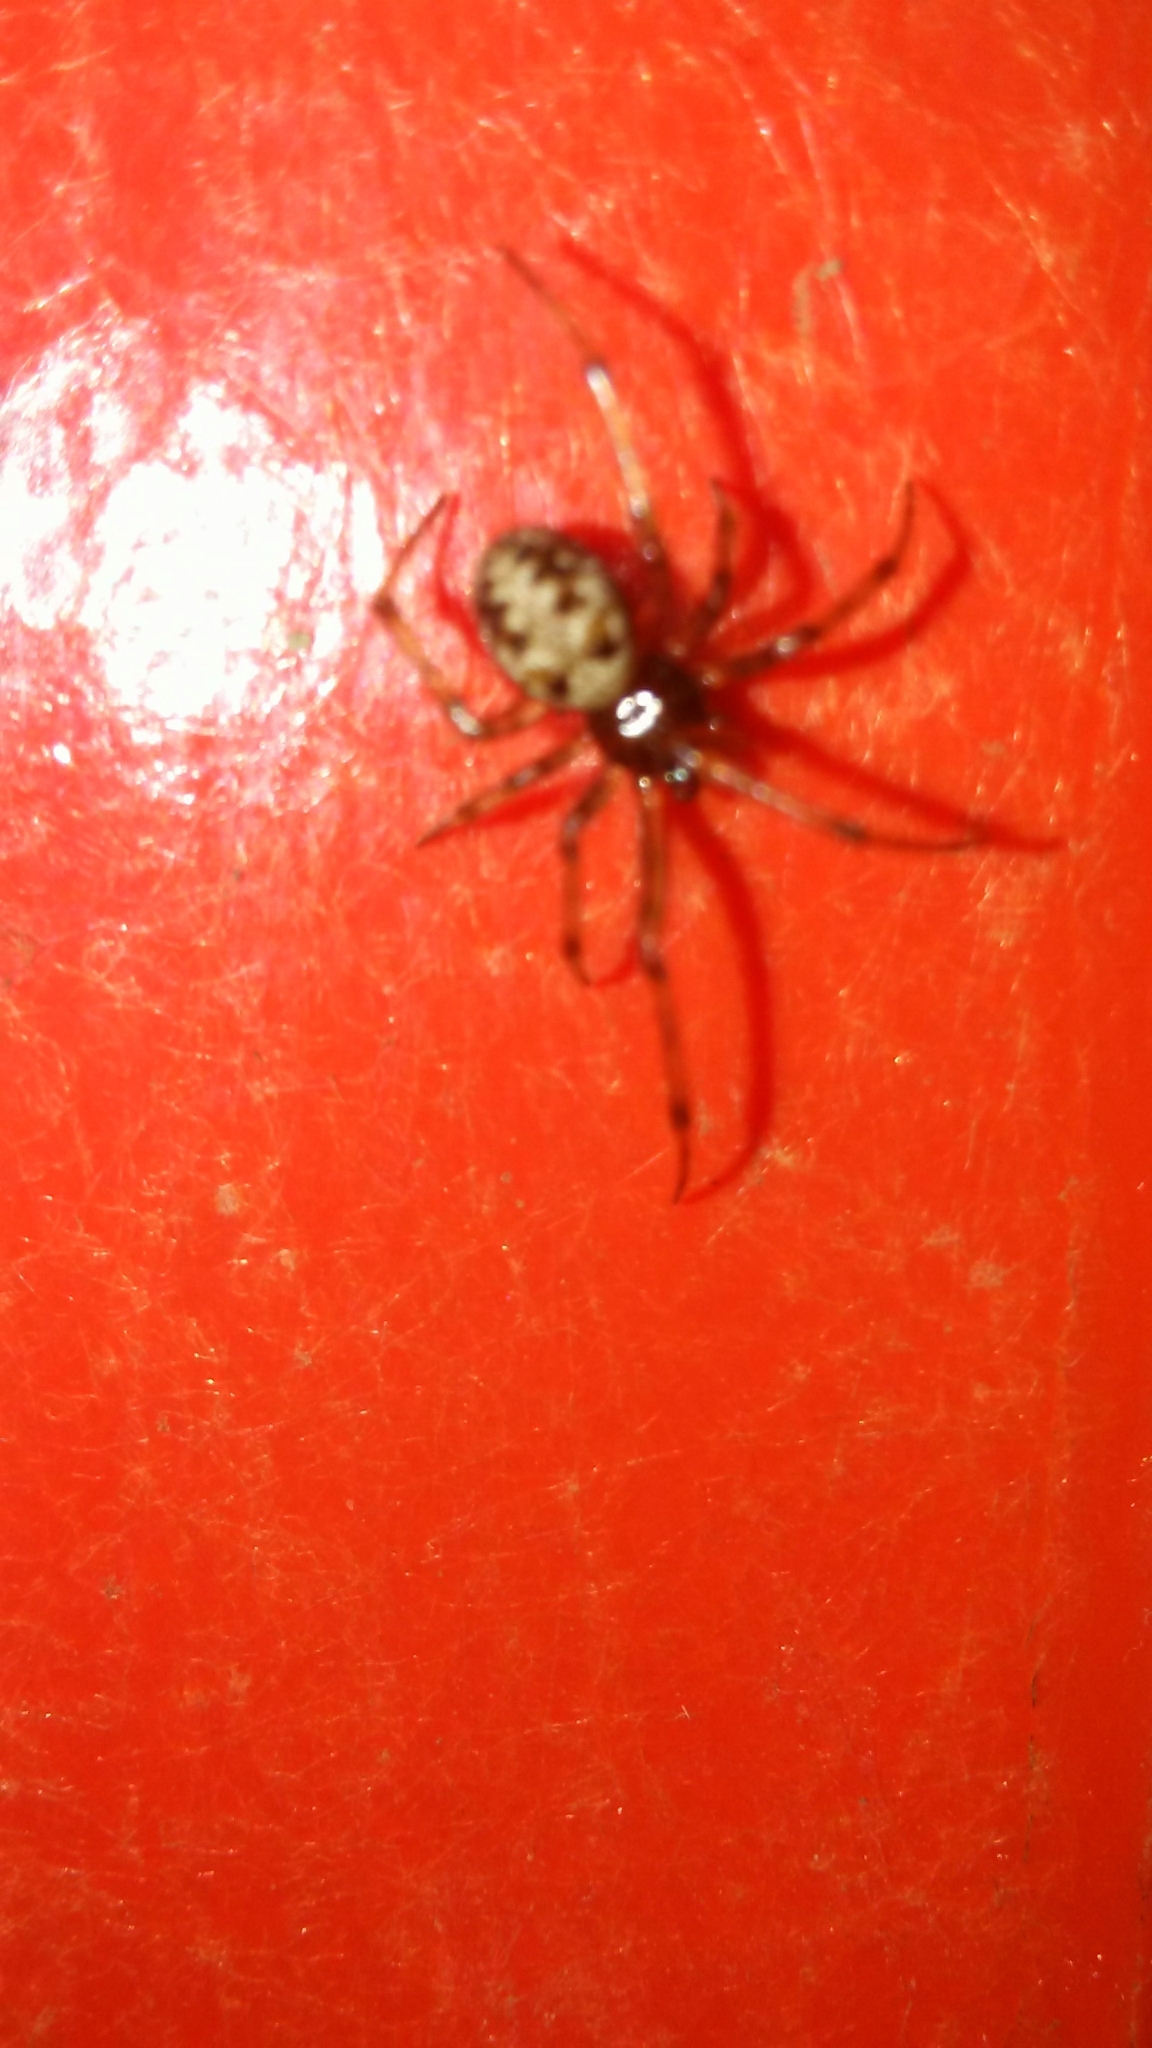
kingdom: Animalia
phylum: Arthropoda
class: Arachnida
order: Araneae
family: Theridiidae
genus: Steatoda
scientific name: Steatoda triangulosa
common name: Triangulate bud spider
